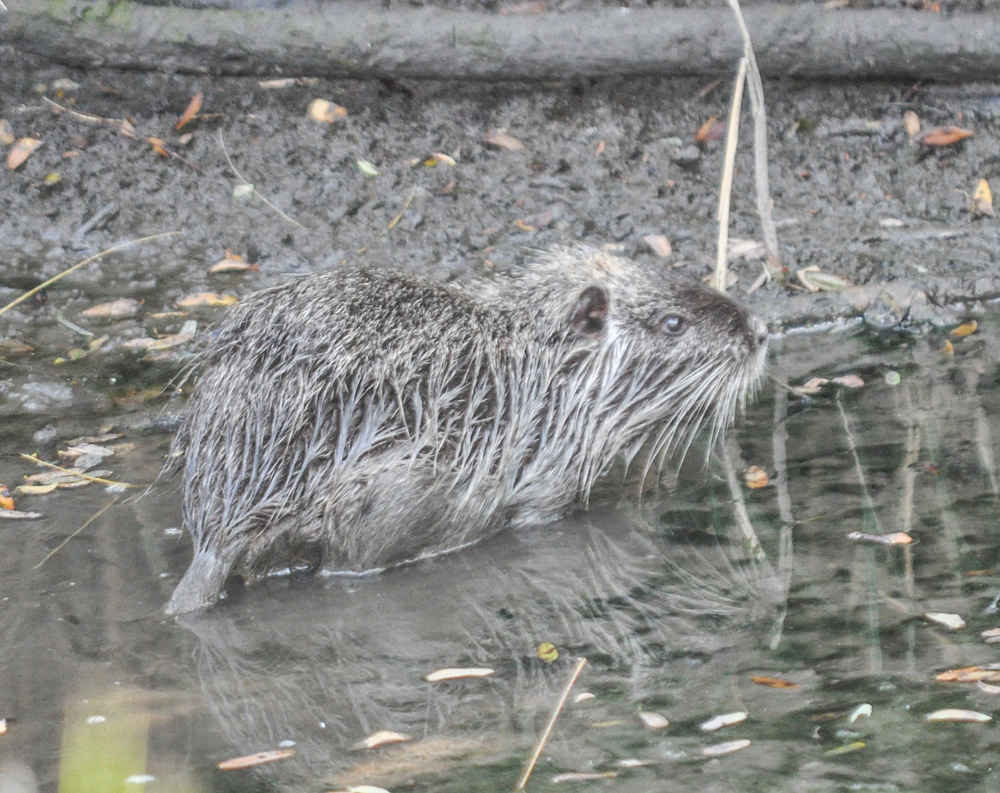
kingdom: Animalia
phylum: Chordata
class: Mammalia
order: Rodentia
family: Myocastoridae
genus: Myocastor
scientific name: Myocastor coypus
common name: Coypu
